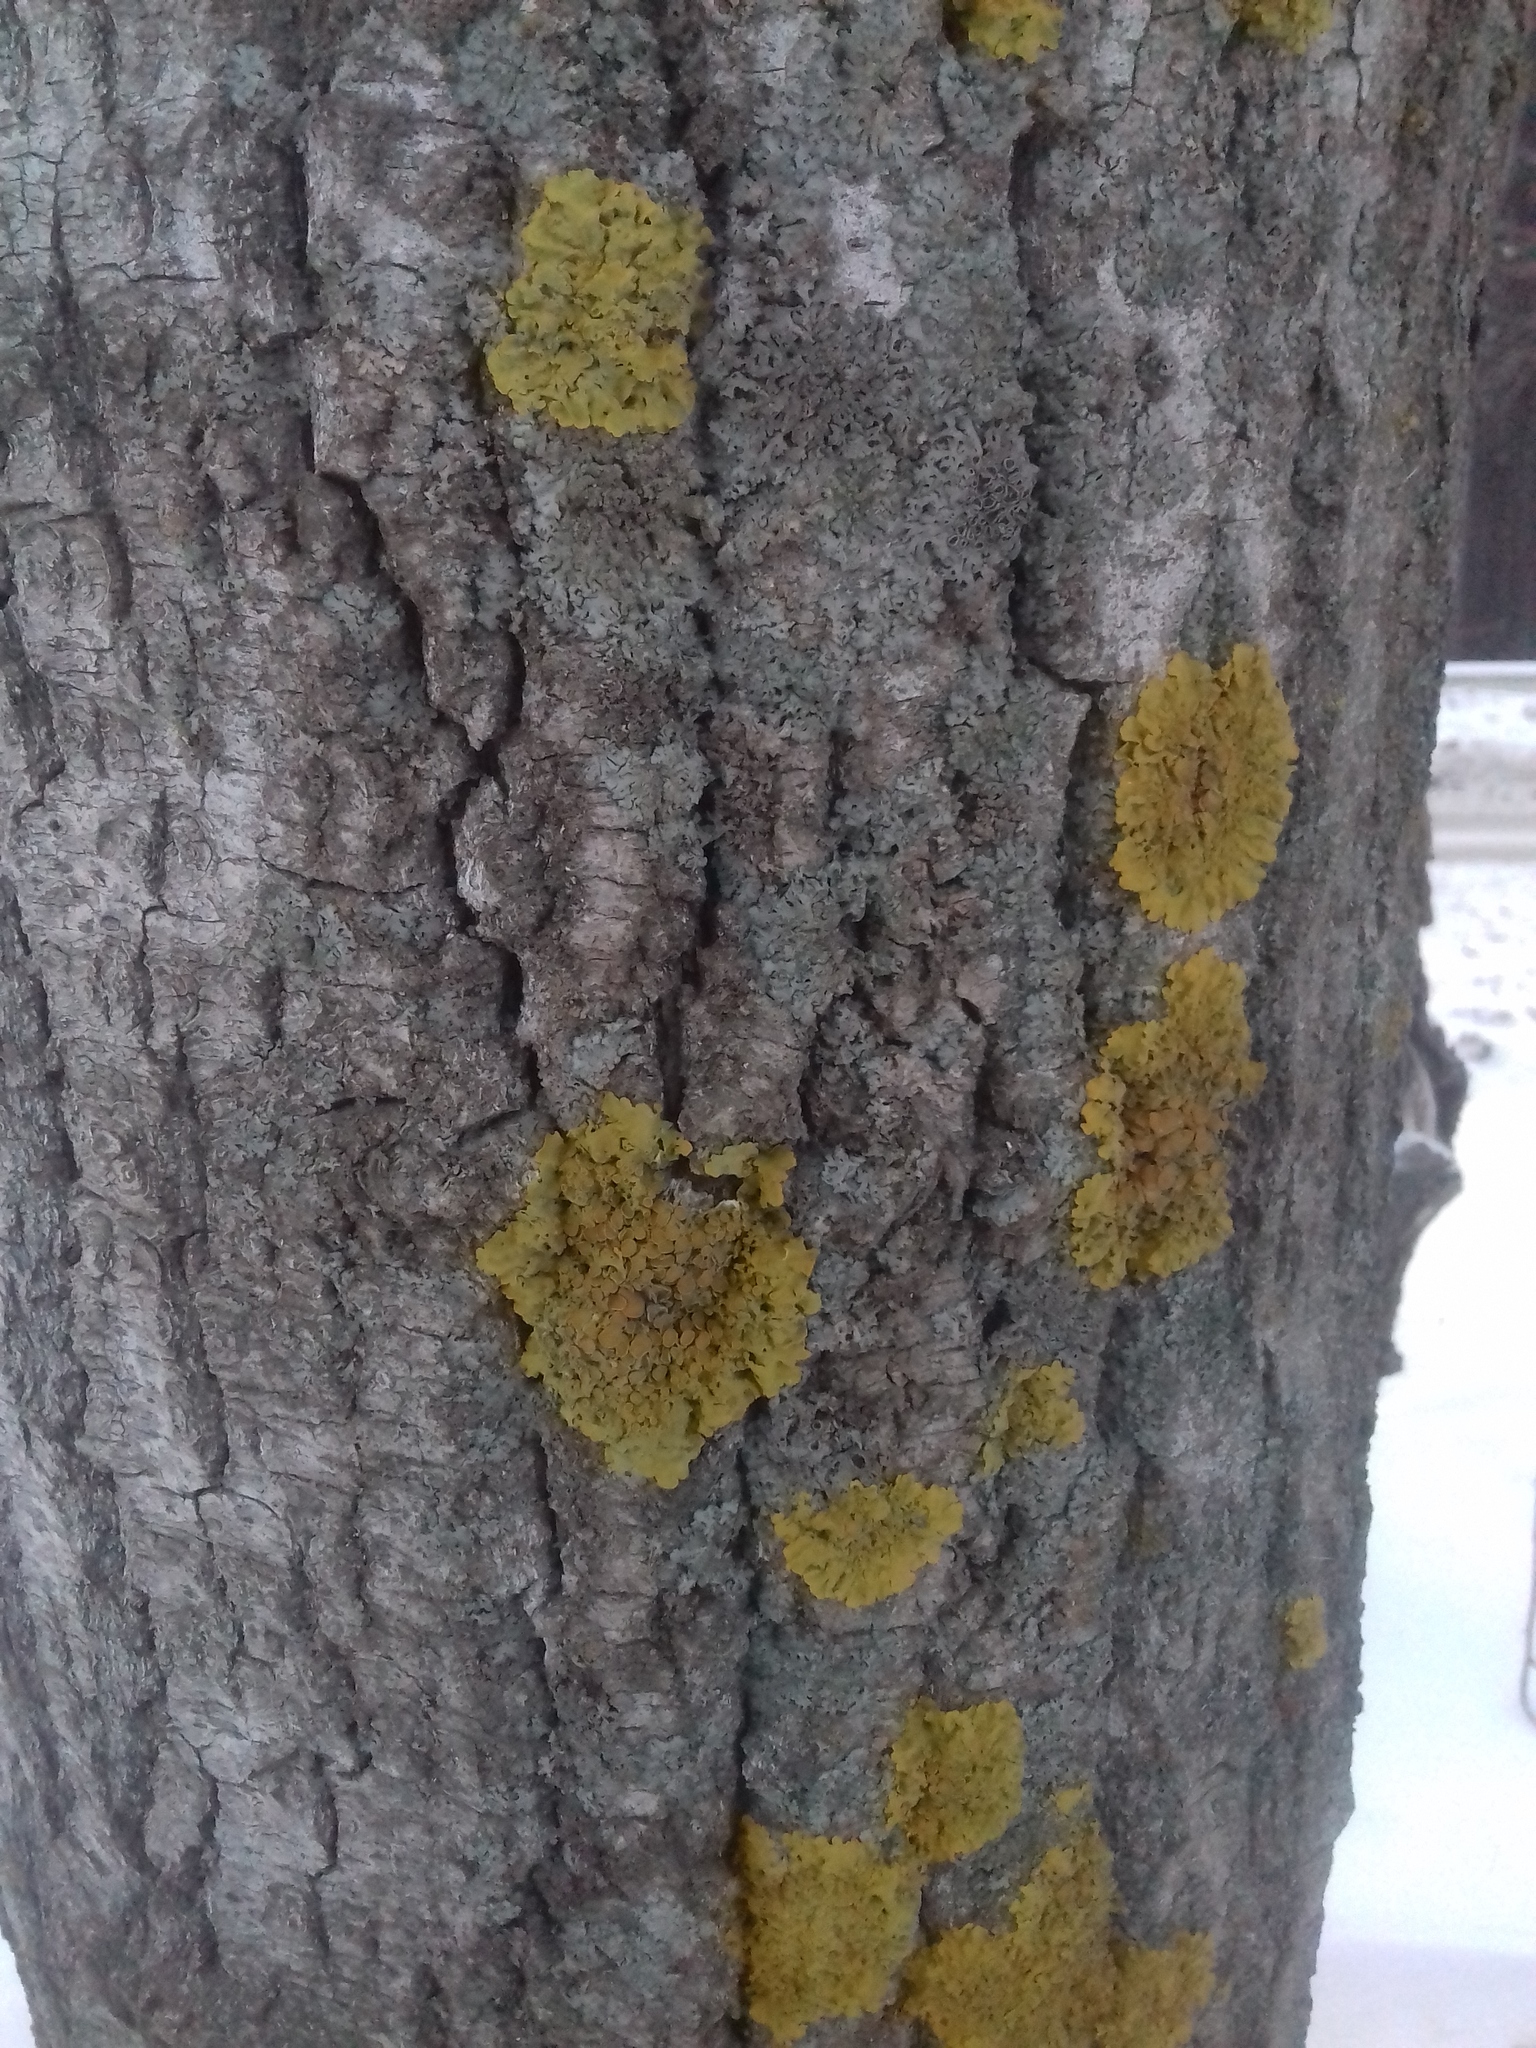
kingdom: Fungi
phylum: Ascomycota
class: Lecanoromycetes
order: Teloschistales
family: Teloschistaceae
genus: Xanthoria
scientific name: Xanthoria parietina
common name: Common orange lichen
